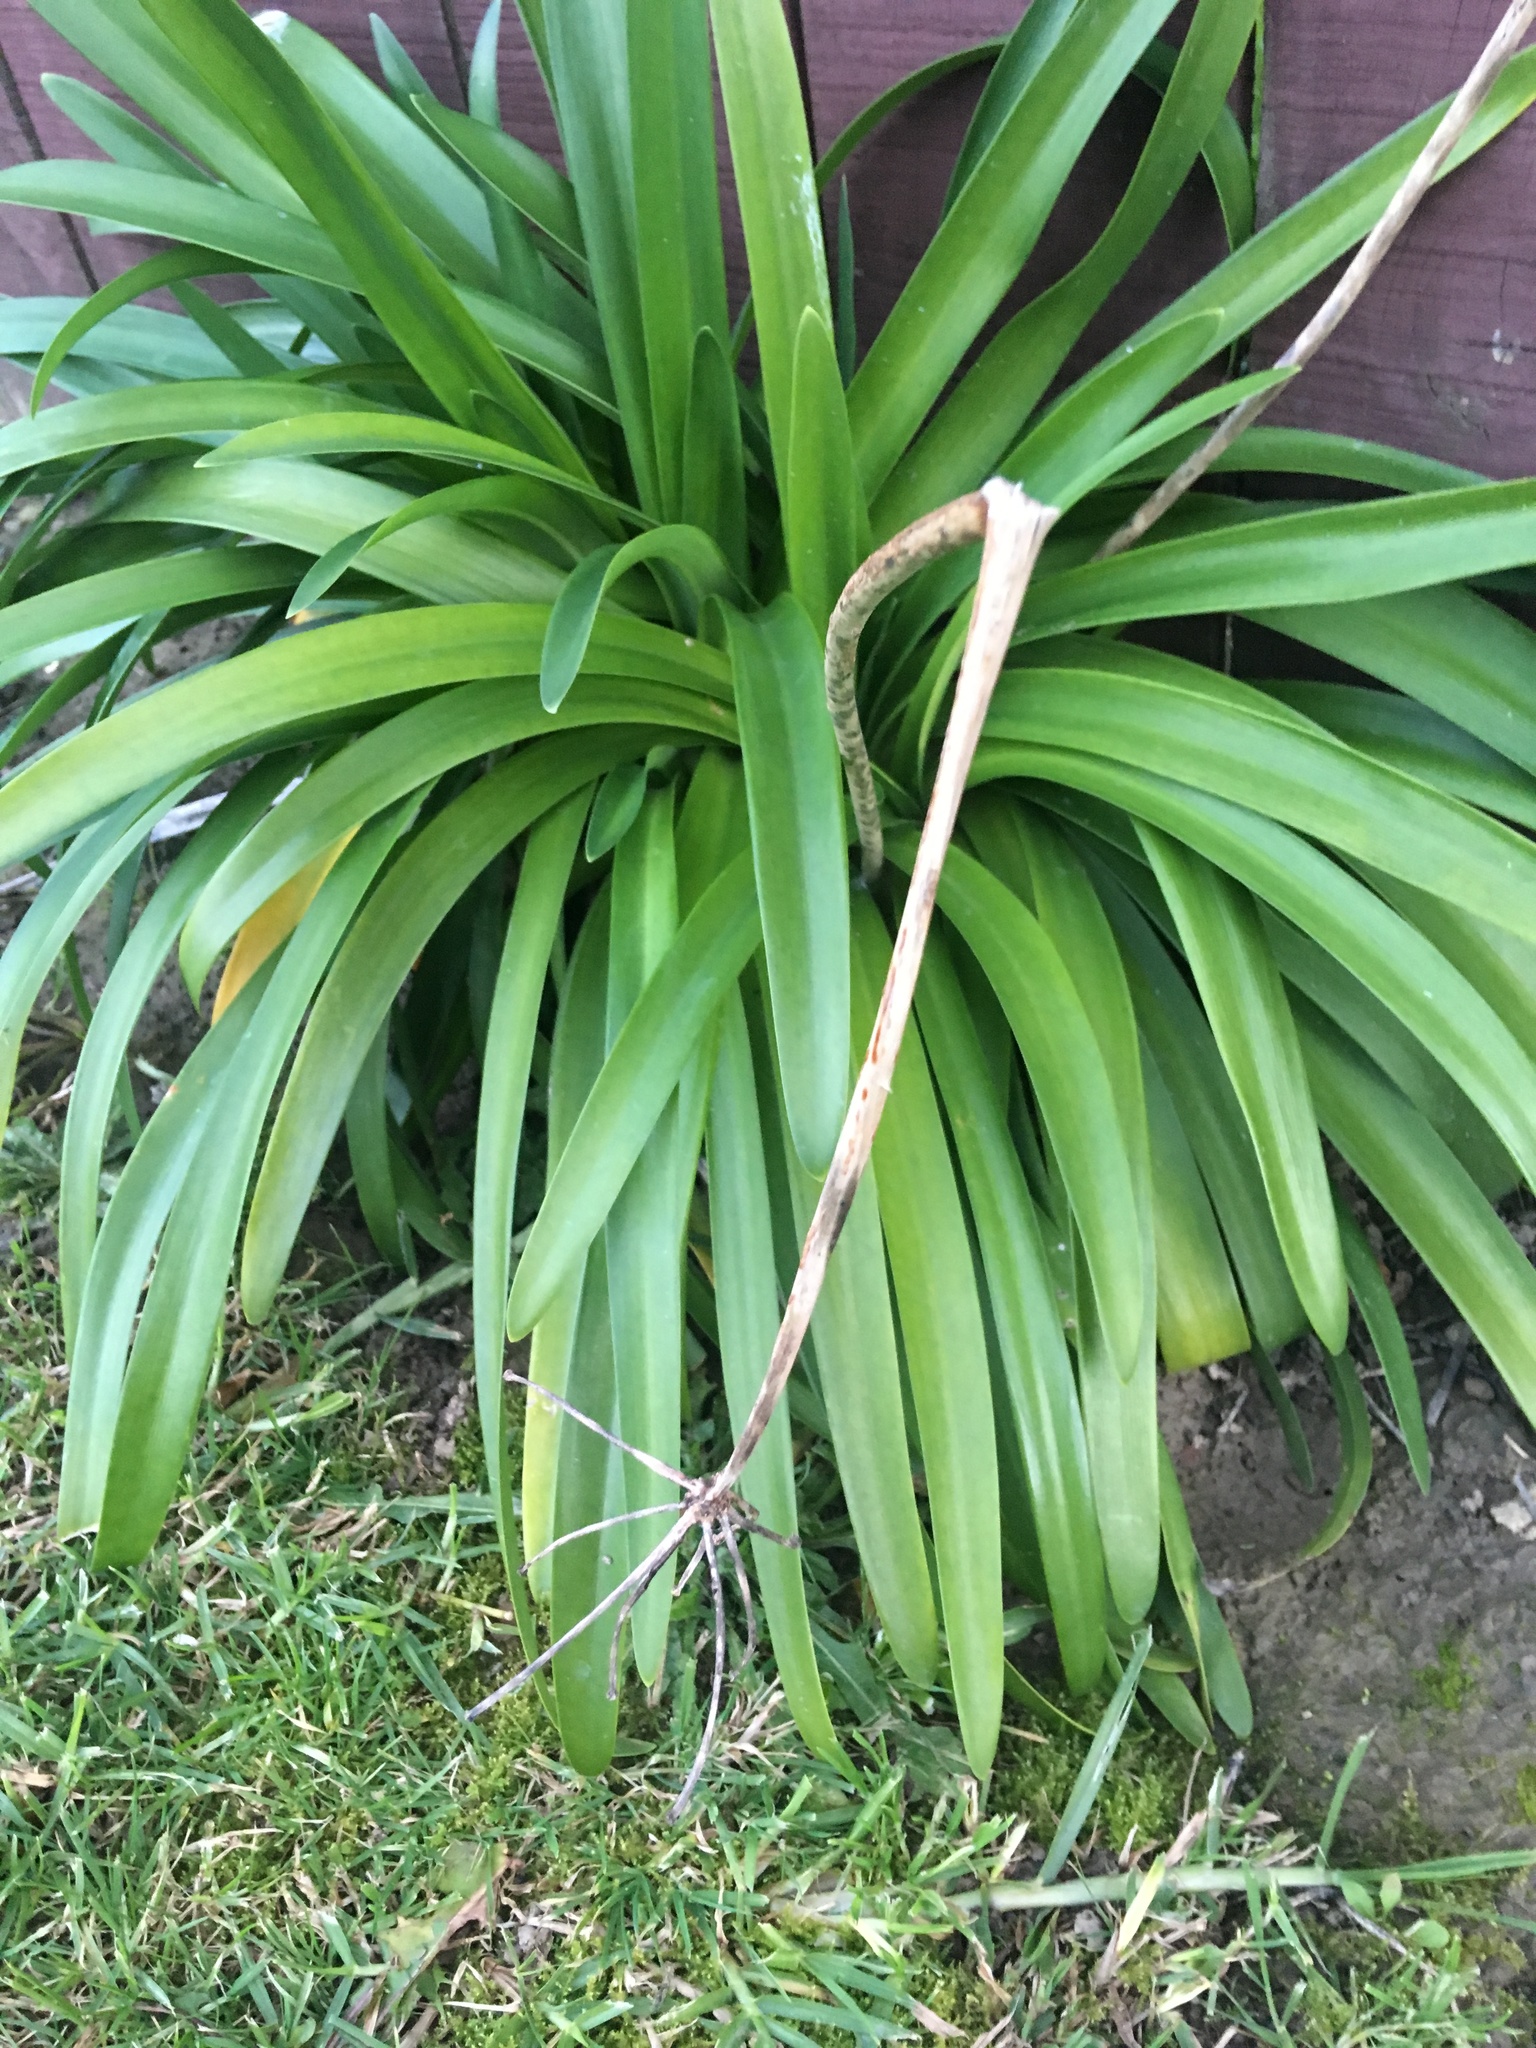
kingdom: Plantae
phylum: Tracheophyta
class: Liliopsida
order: Asparagales
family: Amaryllidaceae
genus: Agapanthus
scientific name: Agapanthus praecox
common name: African-lily
